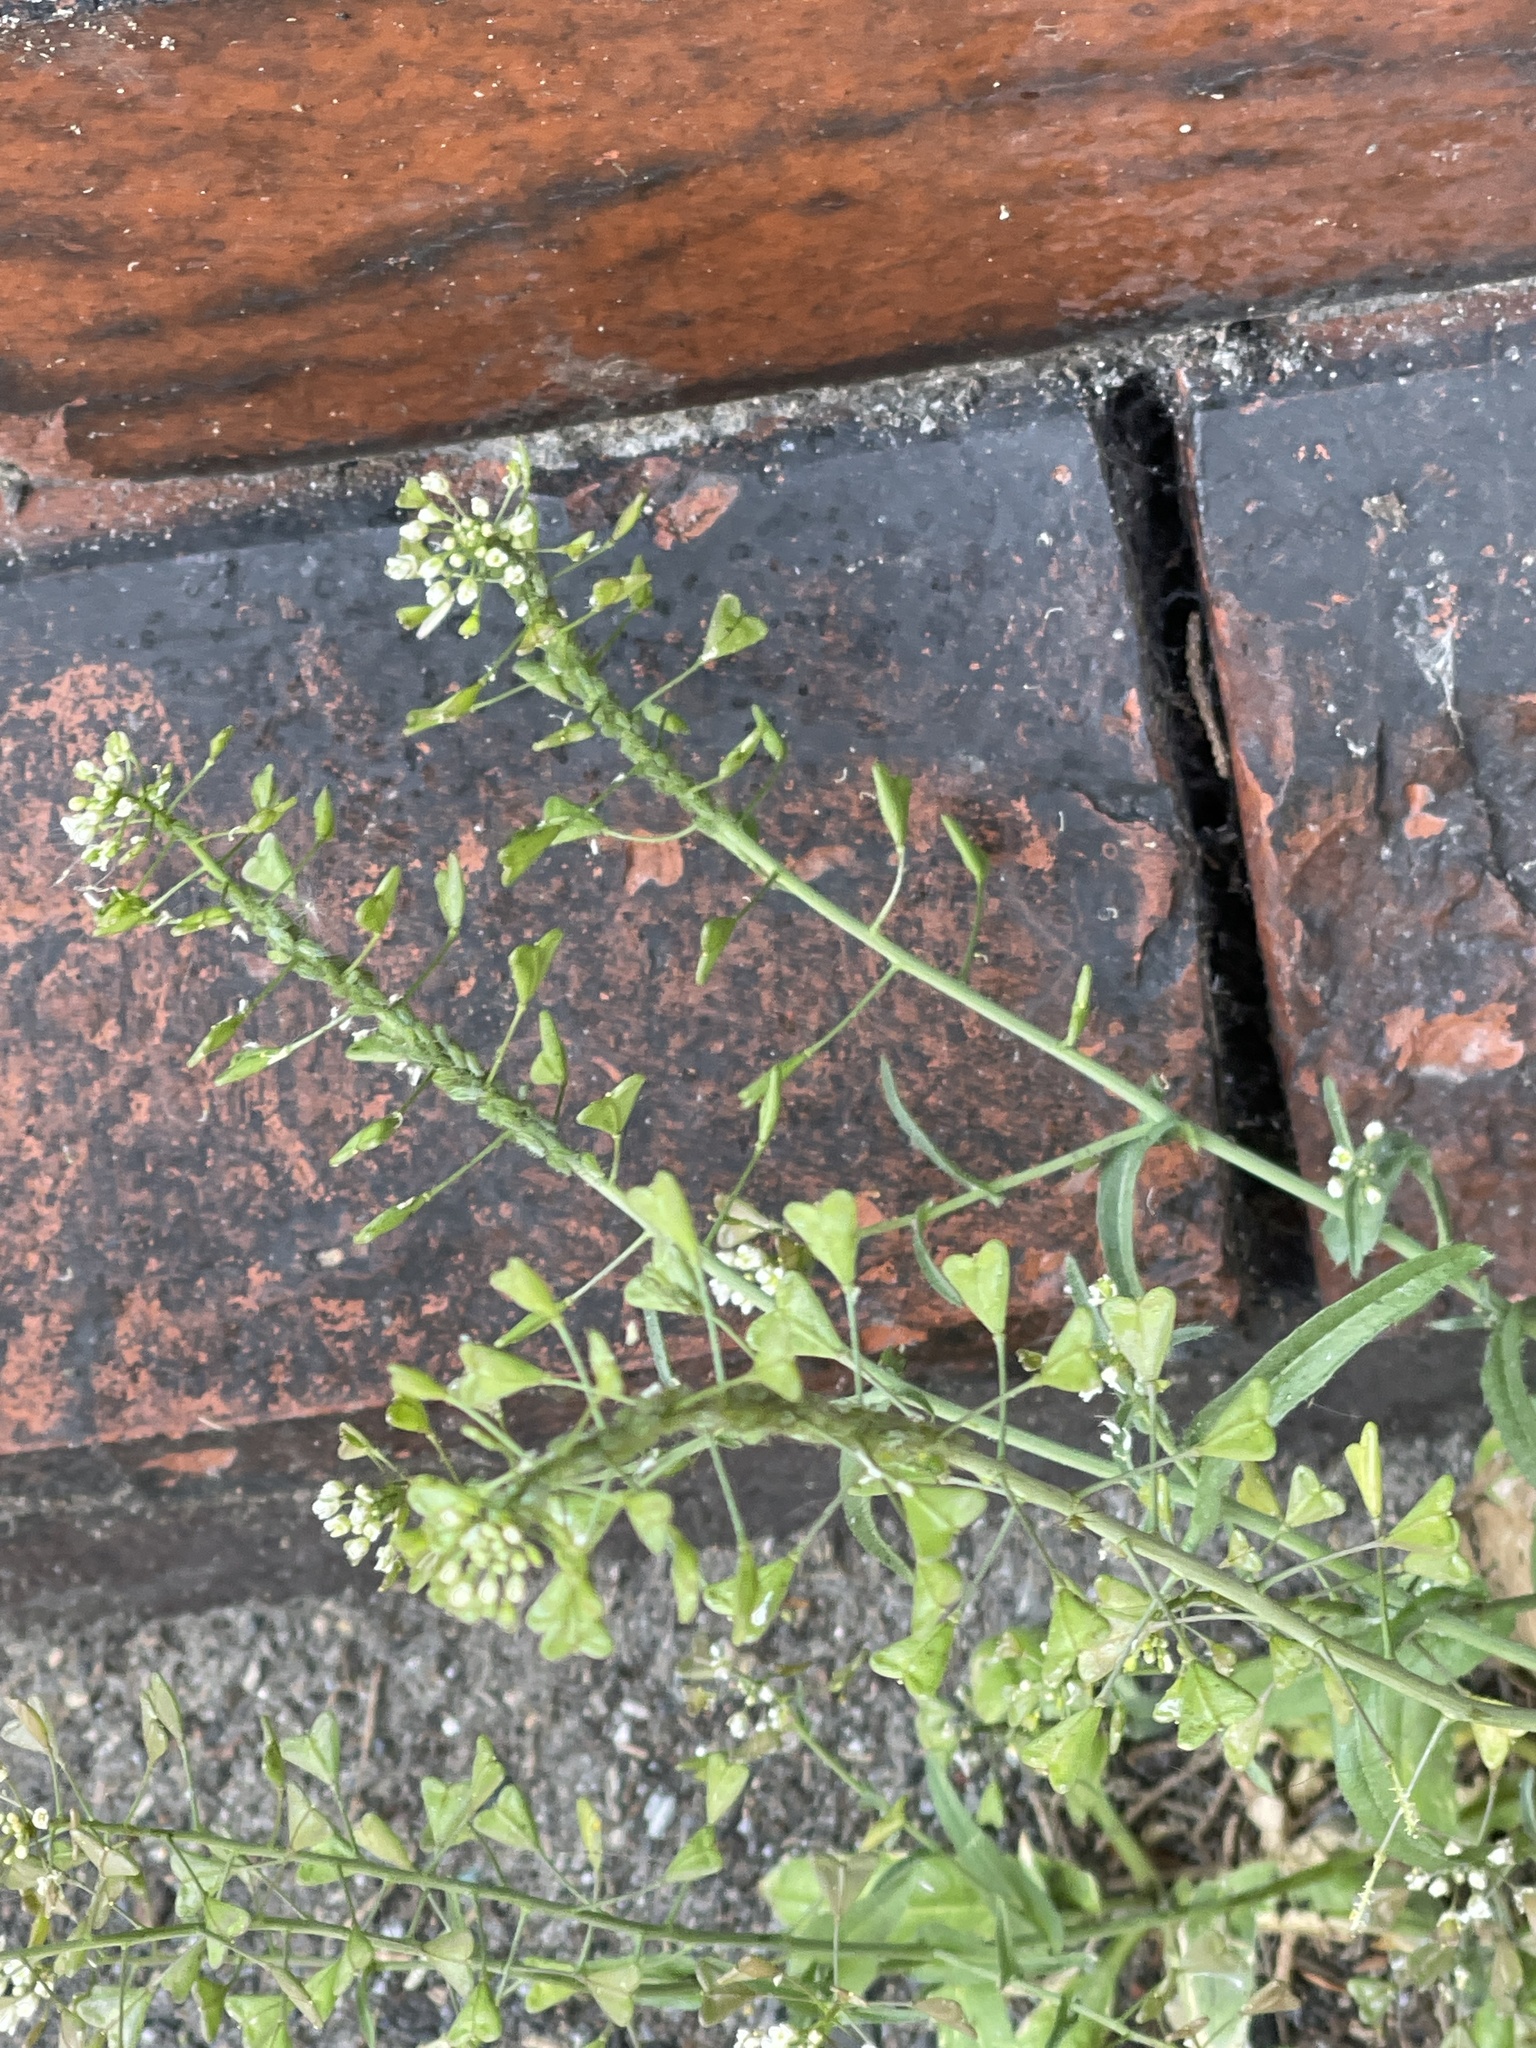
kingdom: Plantae
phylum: Tracheophyta
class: Magnoliopsida
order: Brassicales
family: Brassicaceae
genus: Capsella
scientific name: Capsella bursa-pastoris
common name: Shepherd's purse
